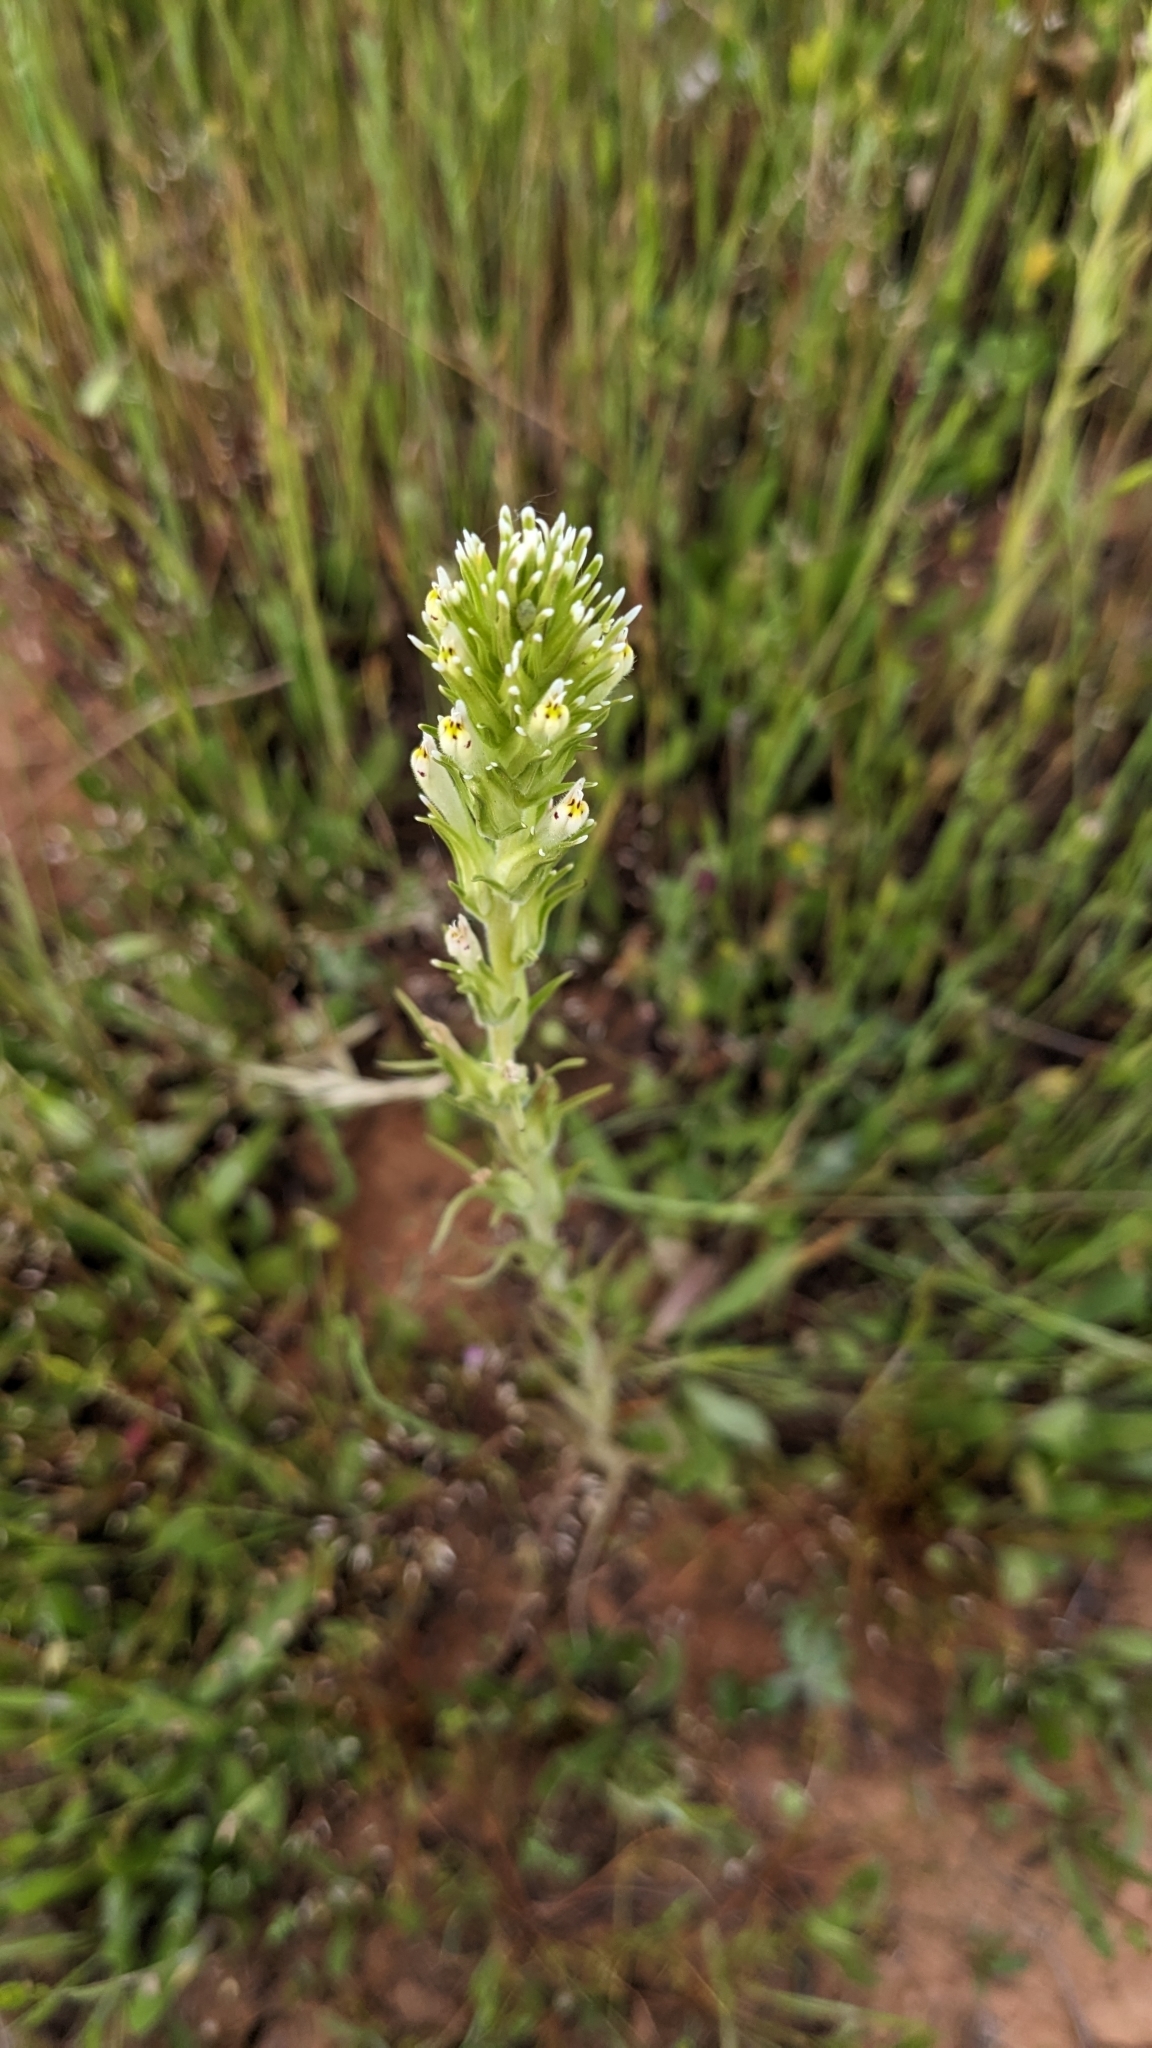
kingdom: Plantae
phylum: Tracheophyta
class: Magnoliopsida
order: Lamiales
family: Orobanchaceae
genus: Castilleja
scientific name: Castilleja attenuata
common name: Valley tassels
